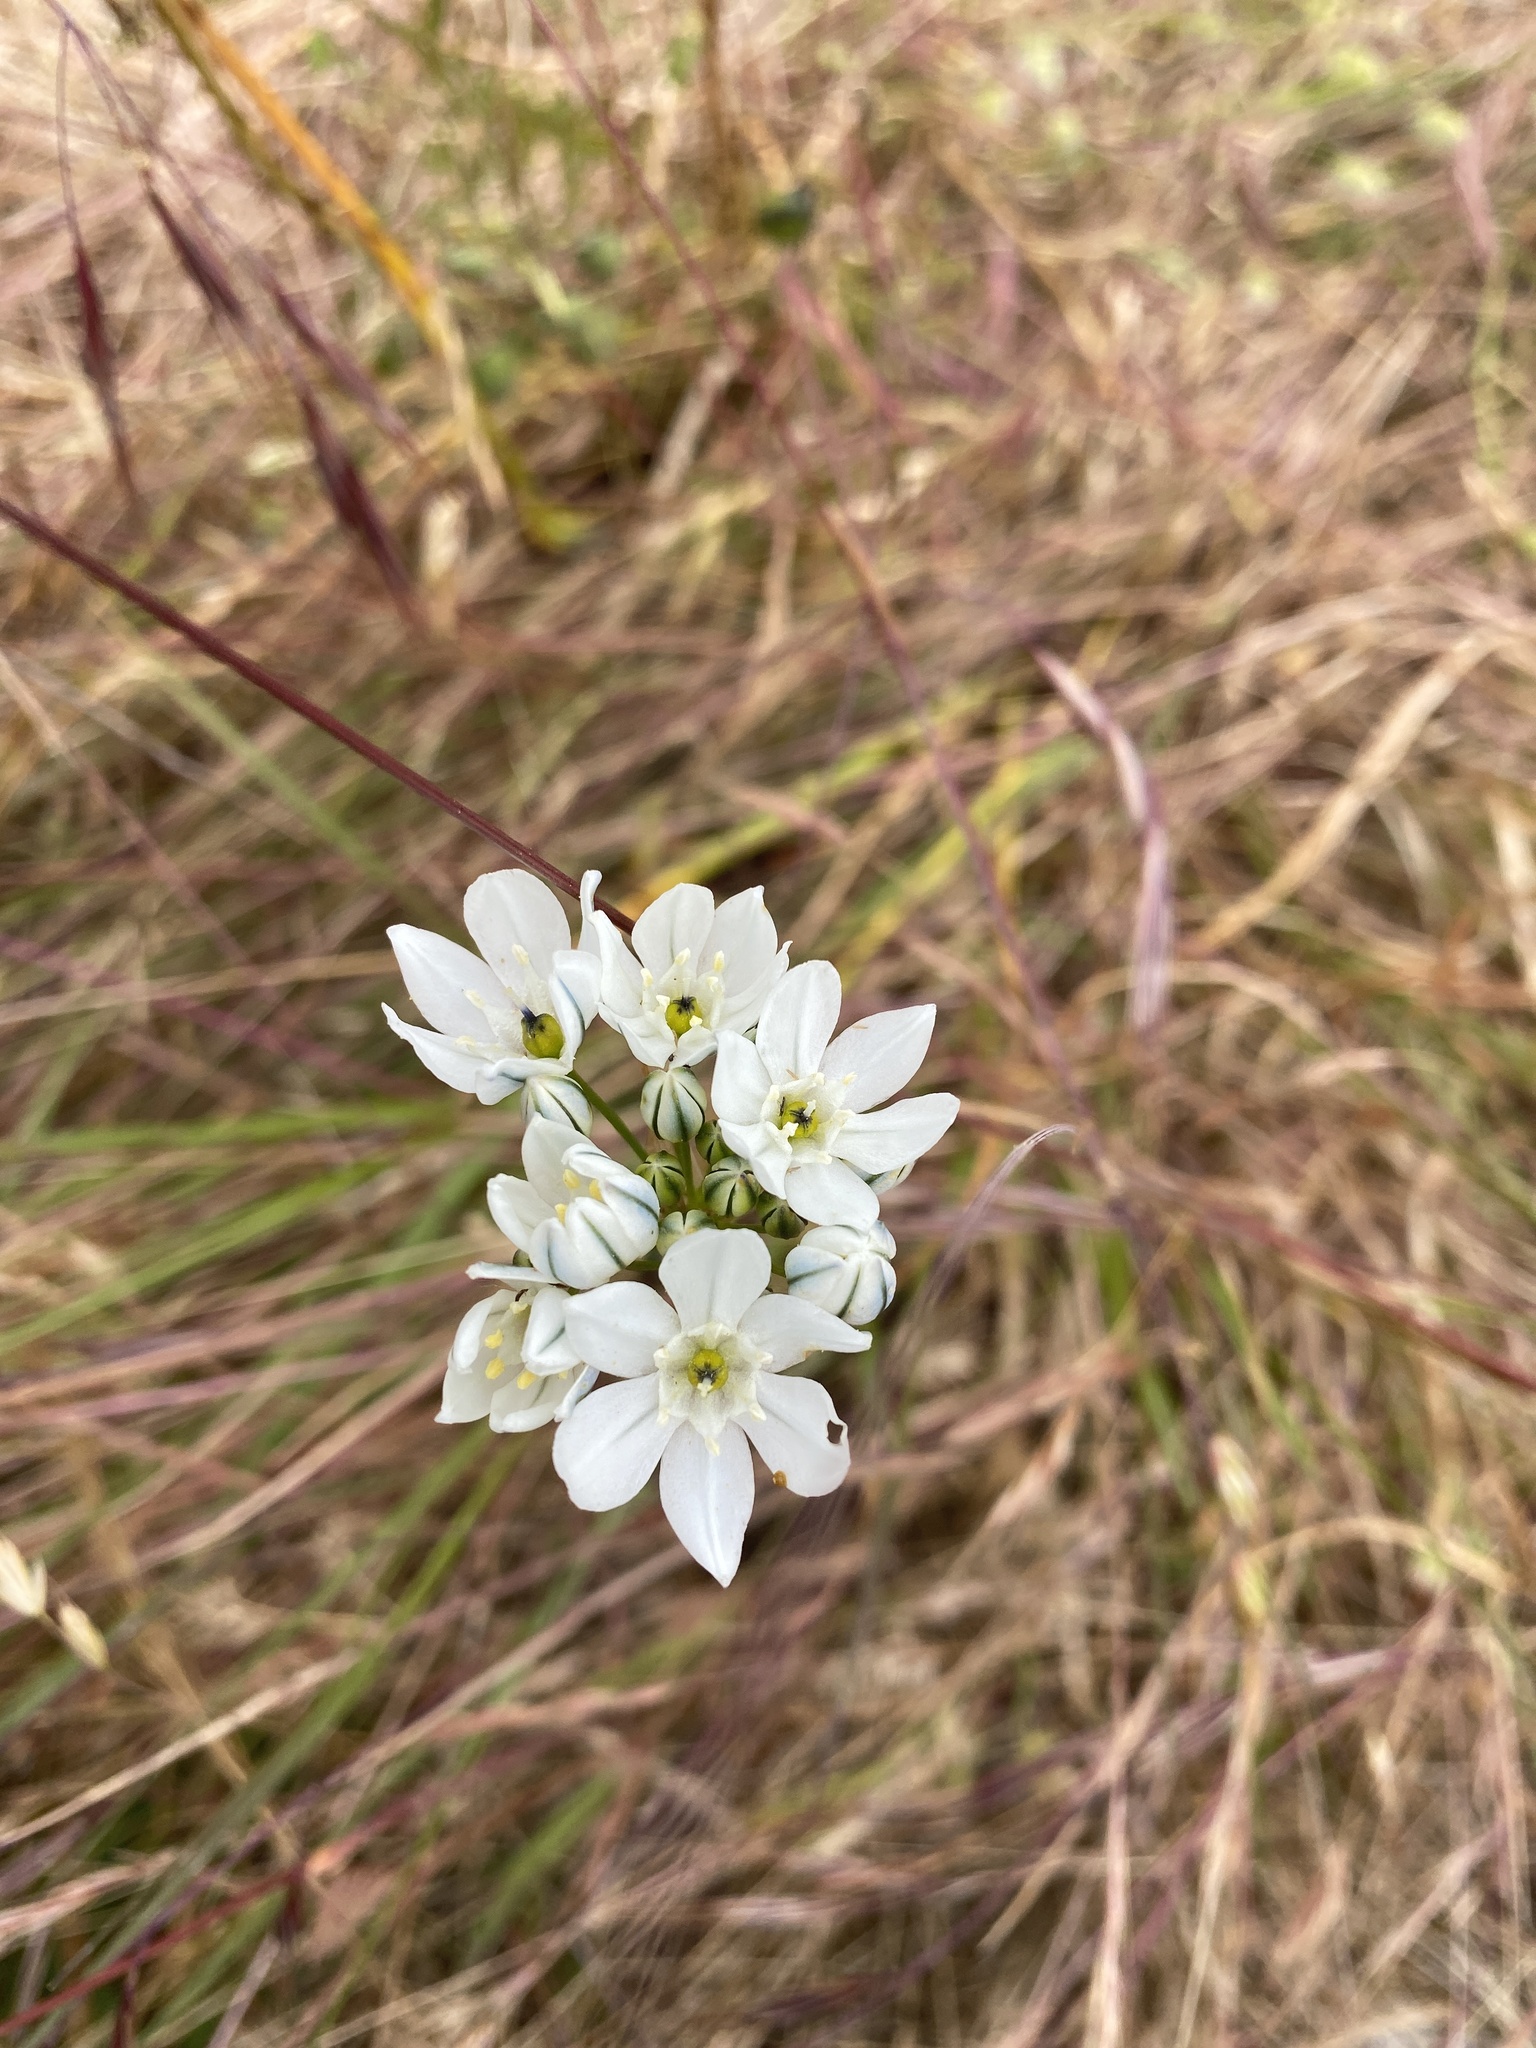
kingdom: Plantae
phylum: Tracheophyta
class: Liliopsida
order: Asparagales
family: Asparagaceae
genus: Triteleia
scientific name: Triteleia hyacinthina
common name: White brodiaea
